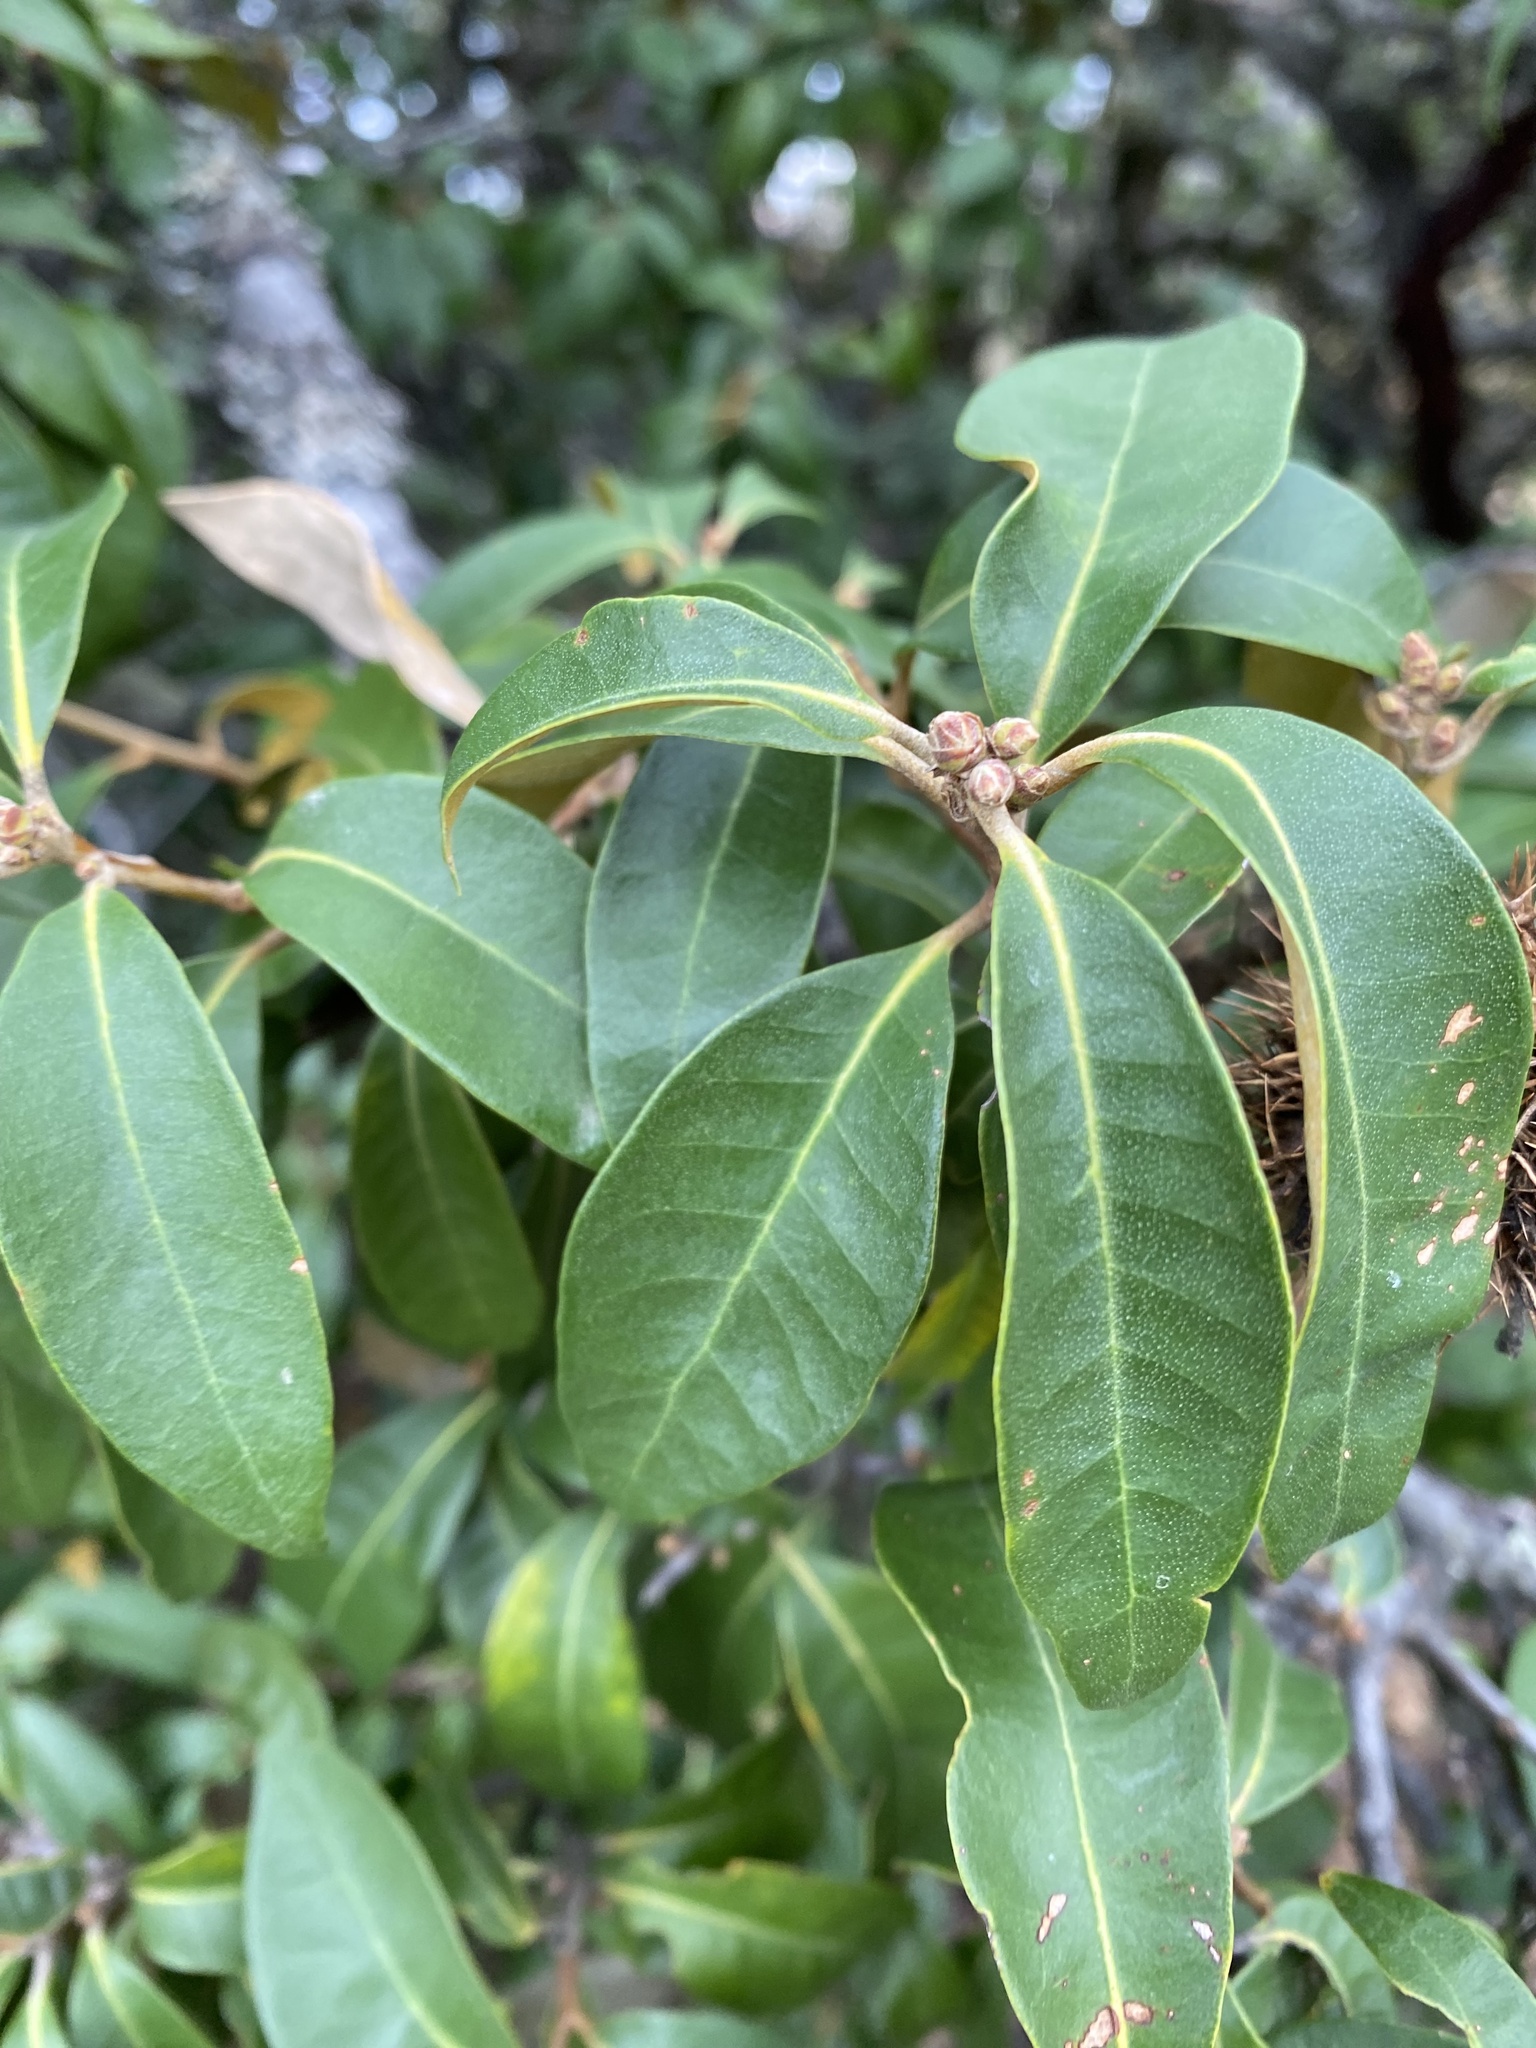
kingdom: Plantae
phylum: Tracheophyta
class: Magnoliopsida
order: Fagales
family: Fagaceae
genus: Chrysolepis
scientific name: Chrysolepis chrysophylla
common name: Giant chinquapin
